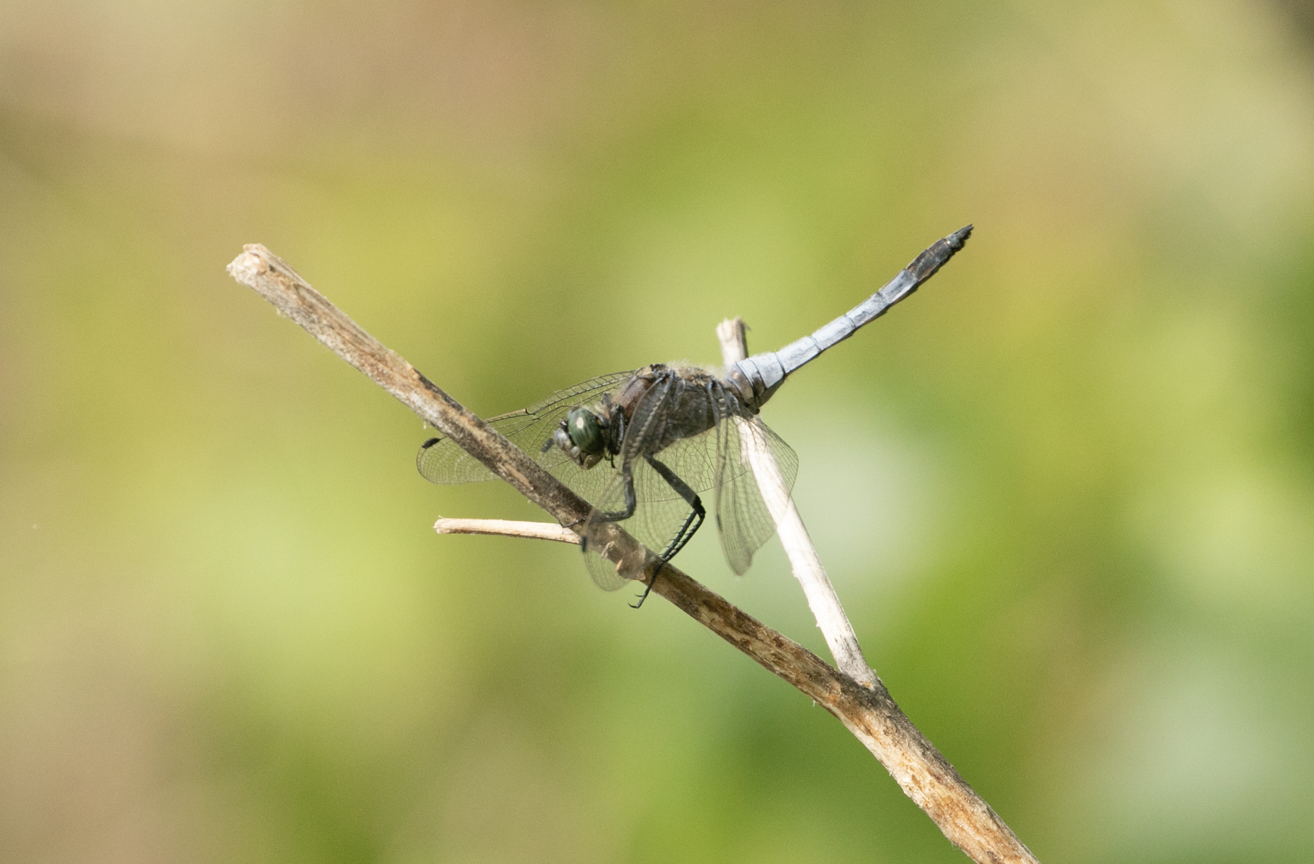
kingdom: Animalia
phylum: Arthropoda
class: Insecta
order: Odonata
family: Libellulidae
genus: Orthetrum
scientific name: Orthetrum cancellatum
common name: Black-tailed skimmer
